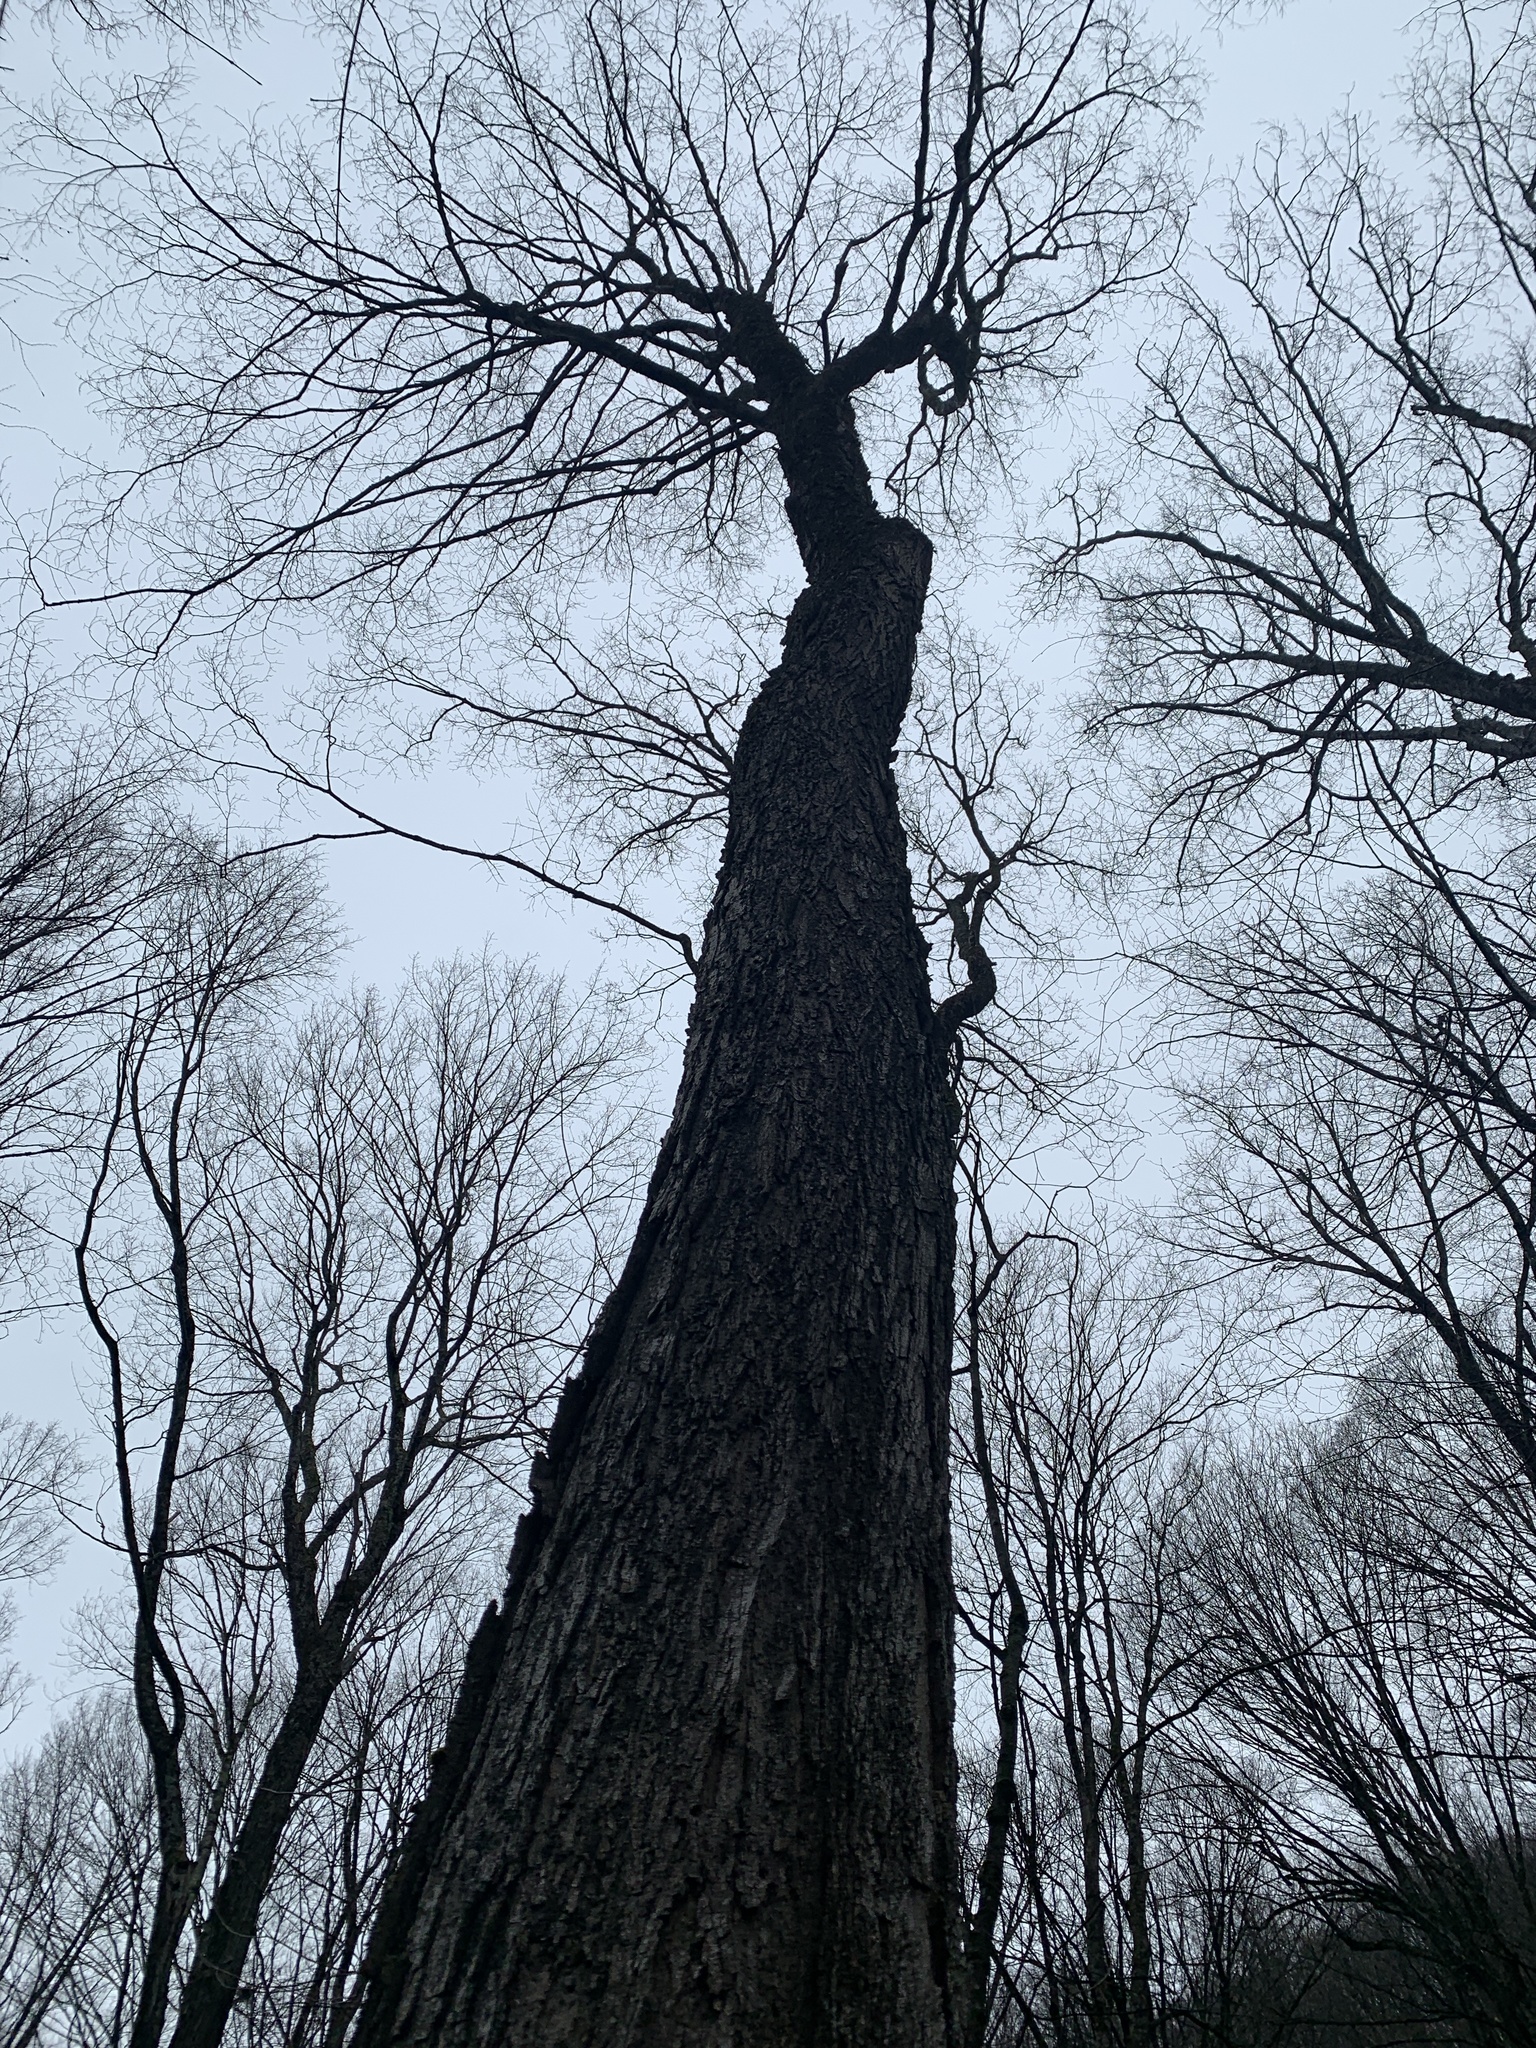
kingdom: Plantae
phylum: Tracheophyta
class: Magnoliopsida
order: Sapindales
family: Sapindaceae
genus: Acer
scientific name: Acer saccharum
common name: Sugar maple
